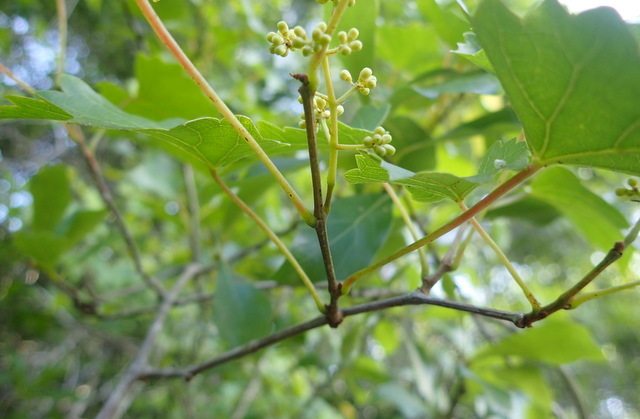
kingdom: Plantae
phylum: Tracheophyta
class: Magnoliopsida
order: Vitales
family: Vitaceae
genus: Vitis
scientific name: Vitis rotundifolia
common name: Muscadine grape
